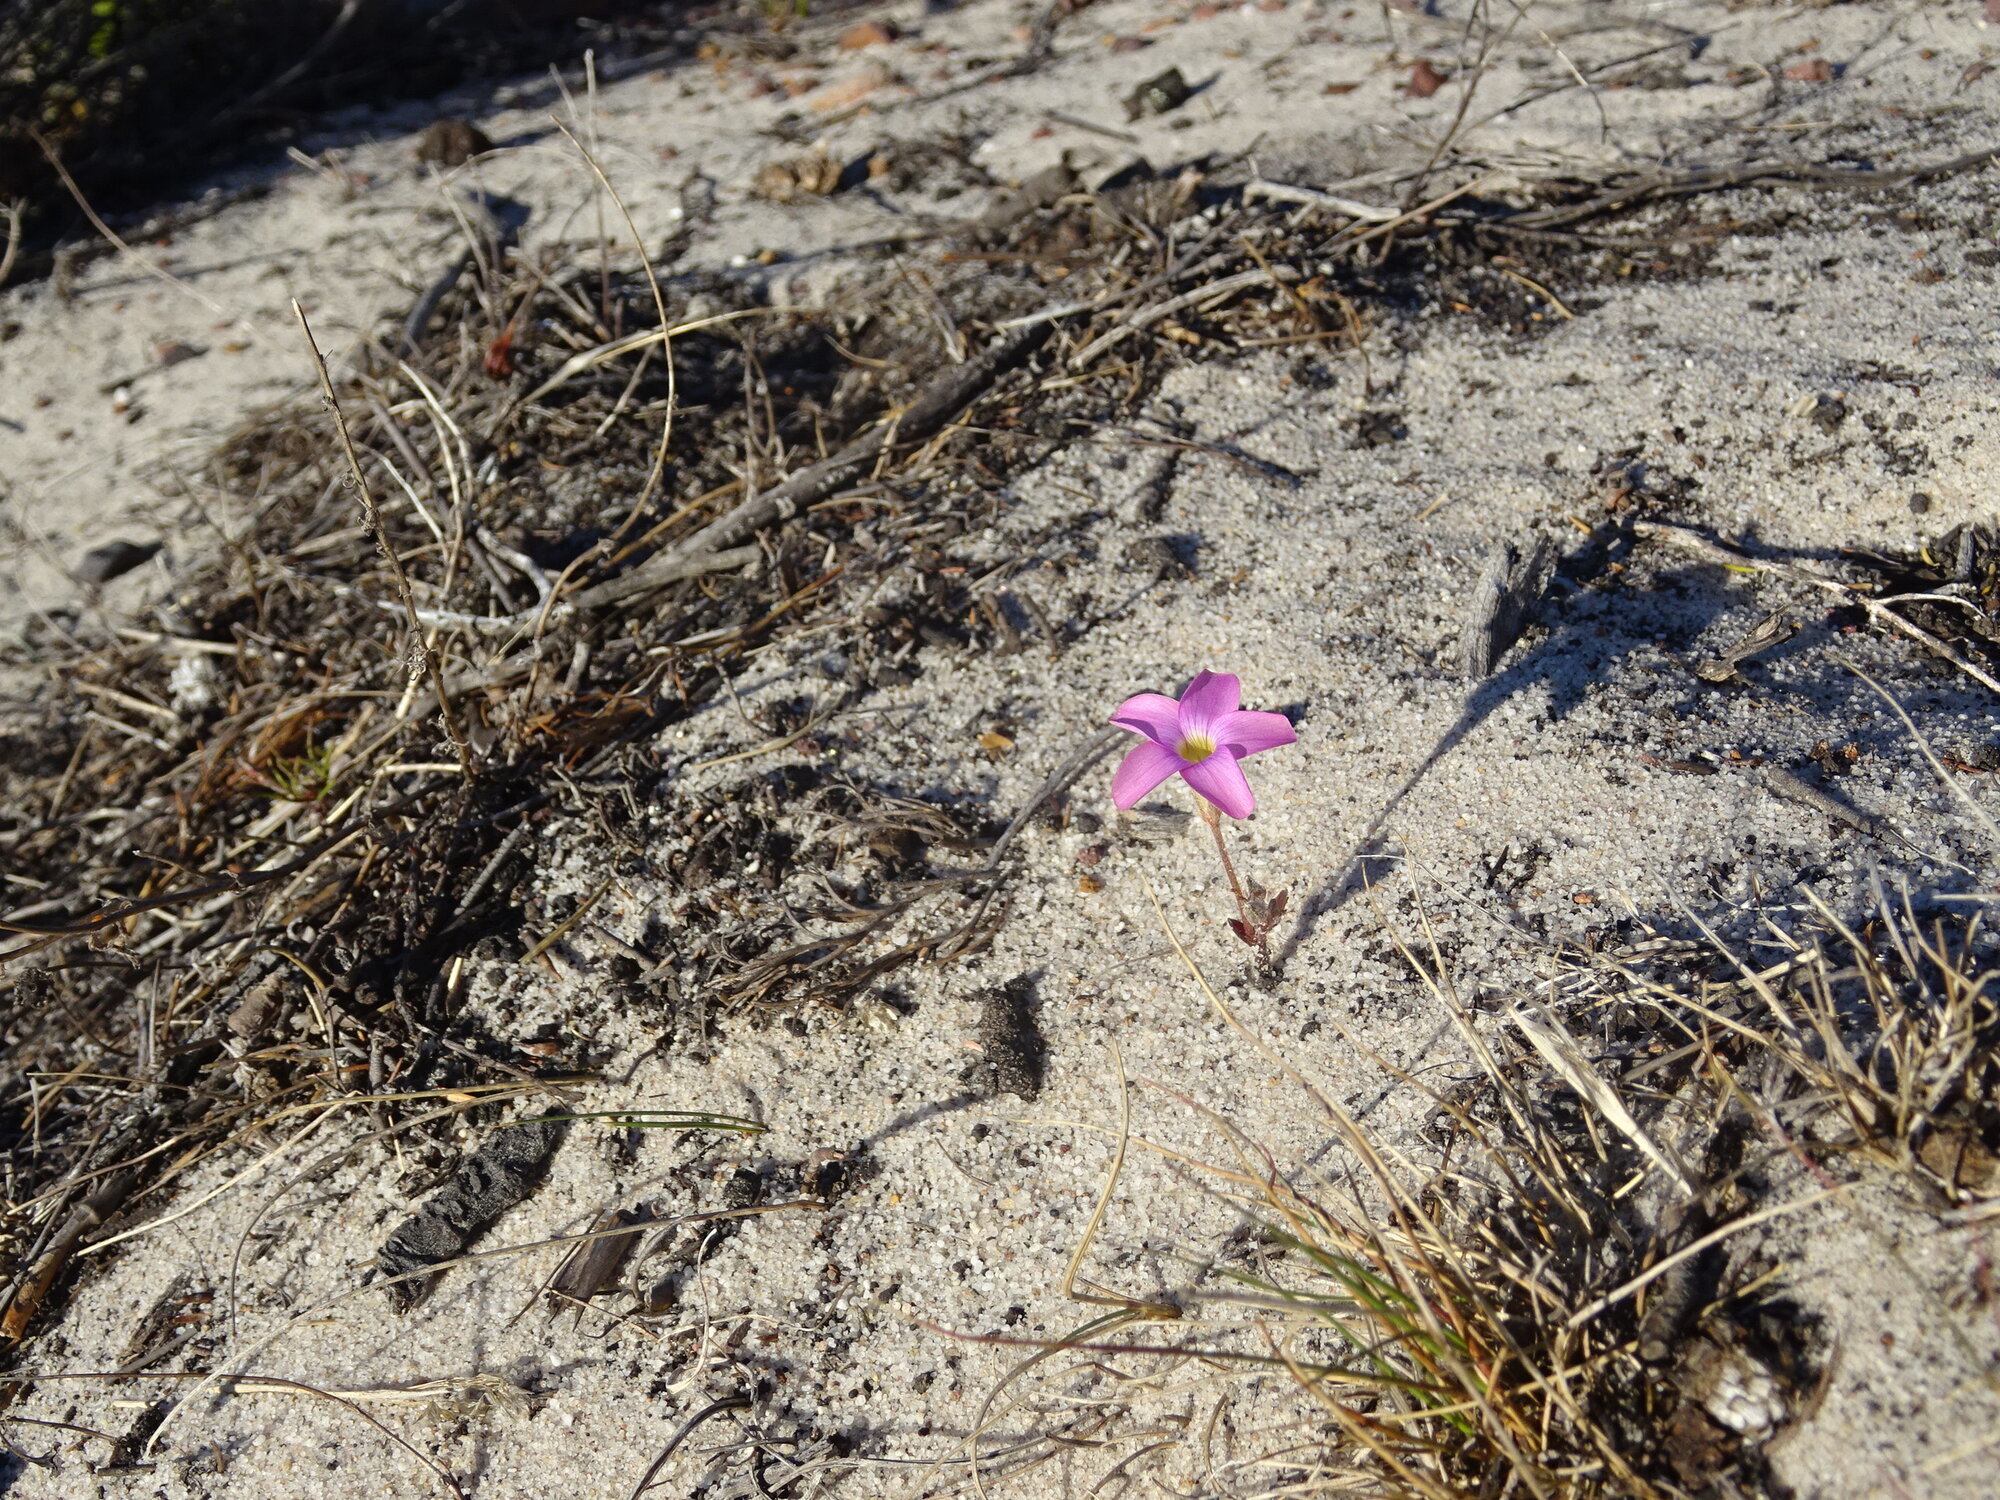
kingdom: Plantae
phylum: Tracheophyta
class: Magnoliopsida
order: Oxalidales
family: Oxalidaceae
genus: Oxalis
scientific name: Oxalis polyphylla
